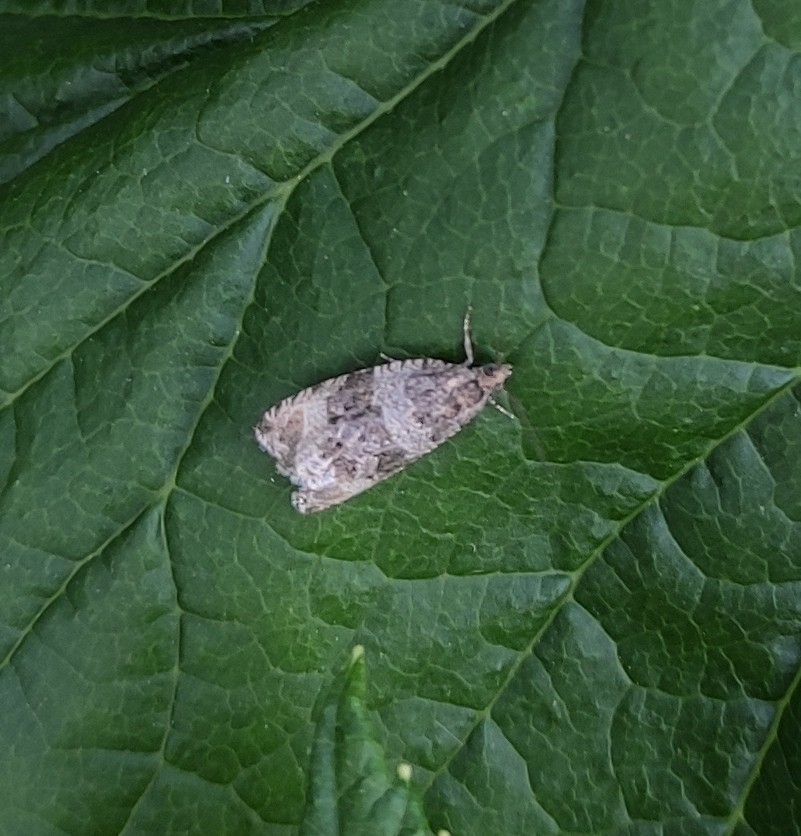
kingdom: Animalia
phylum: Arthropoda
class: Insecta
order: Lepidoptera
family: Tortricidae
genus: Orthotaenia
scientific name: Orthotaenia undulana
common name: Woodland marble
